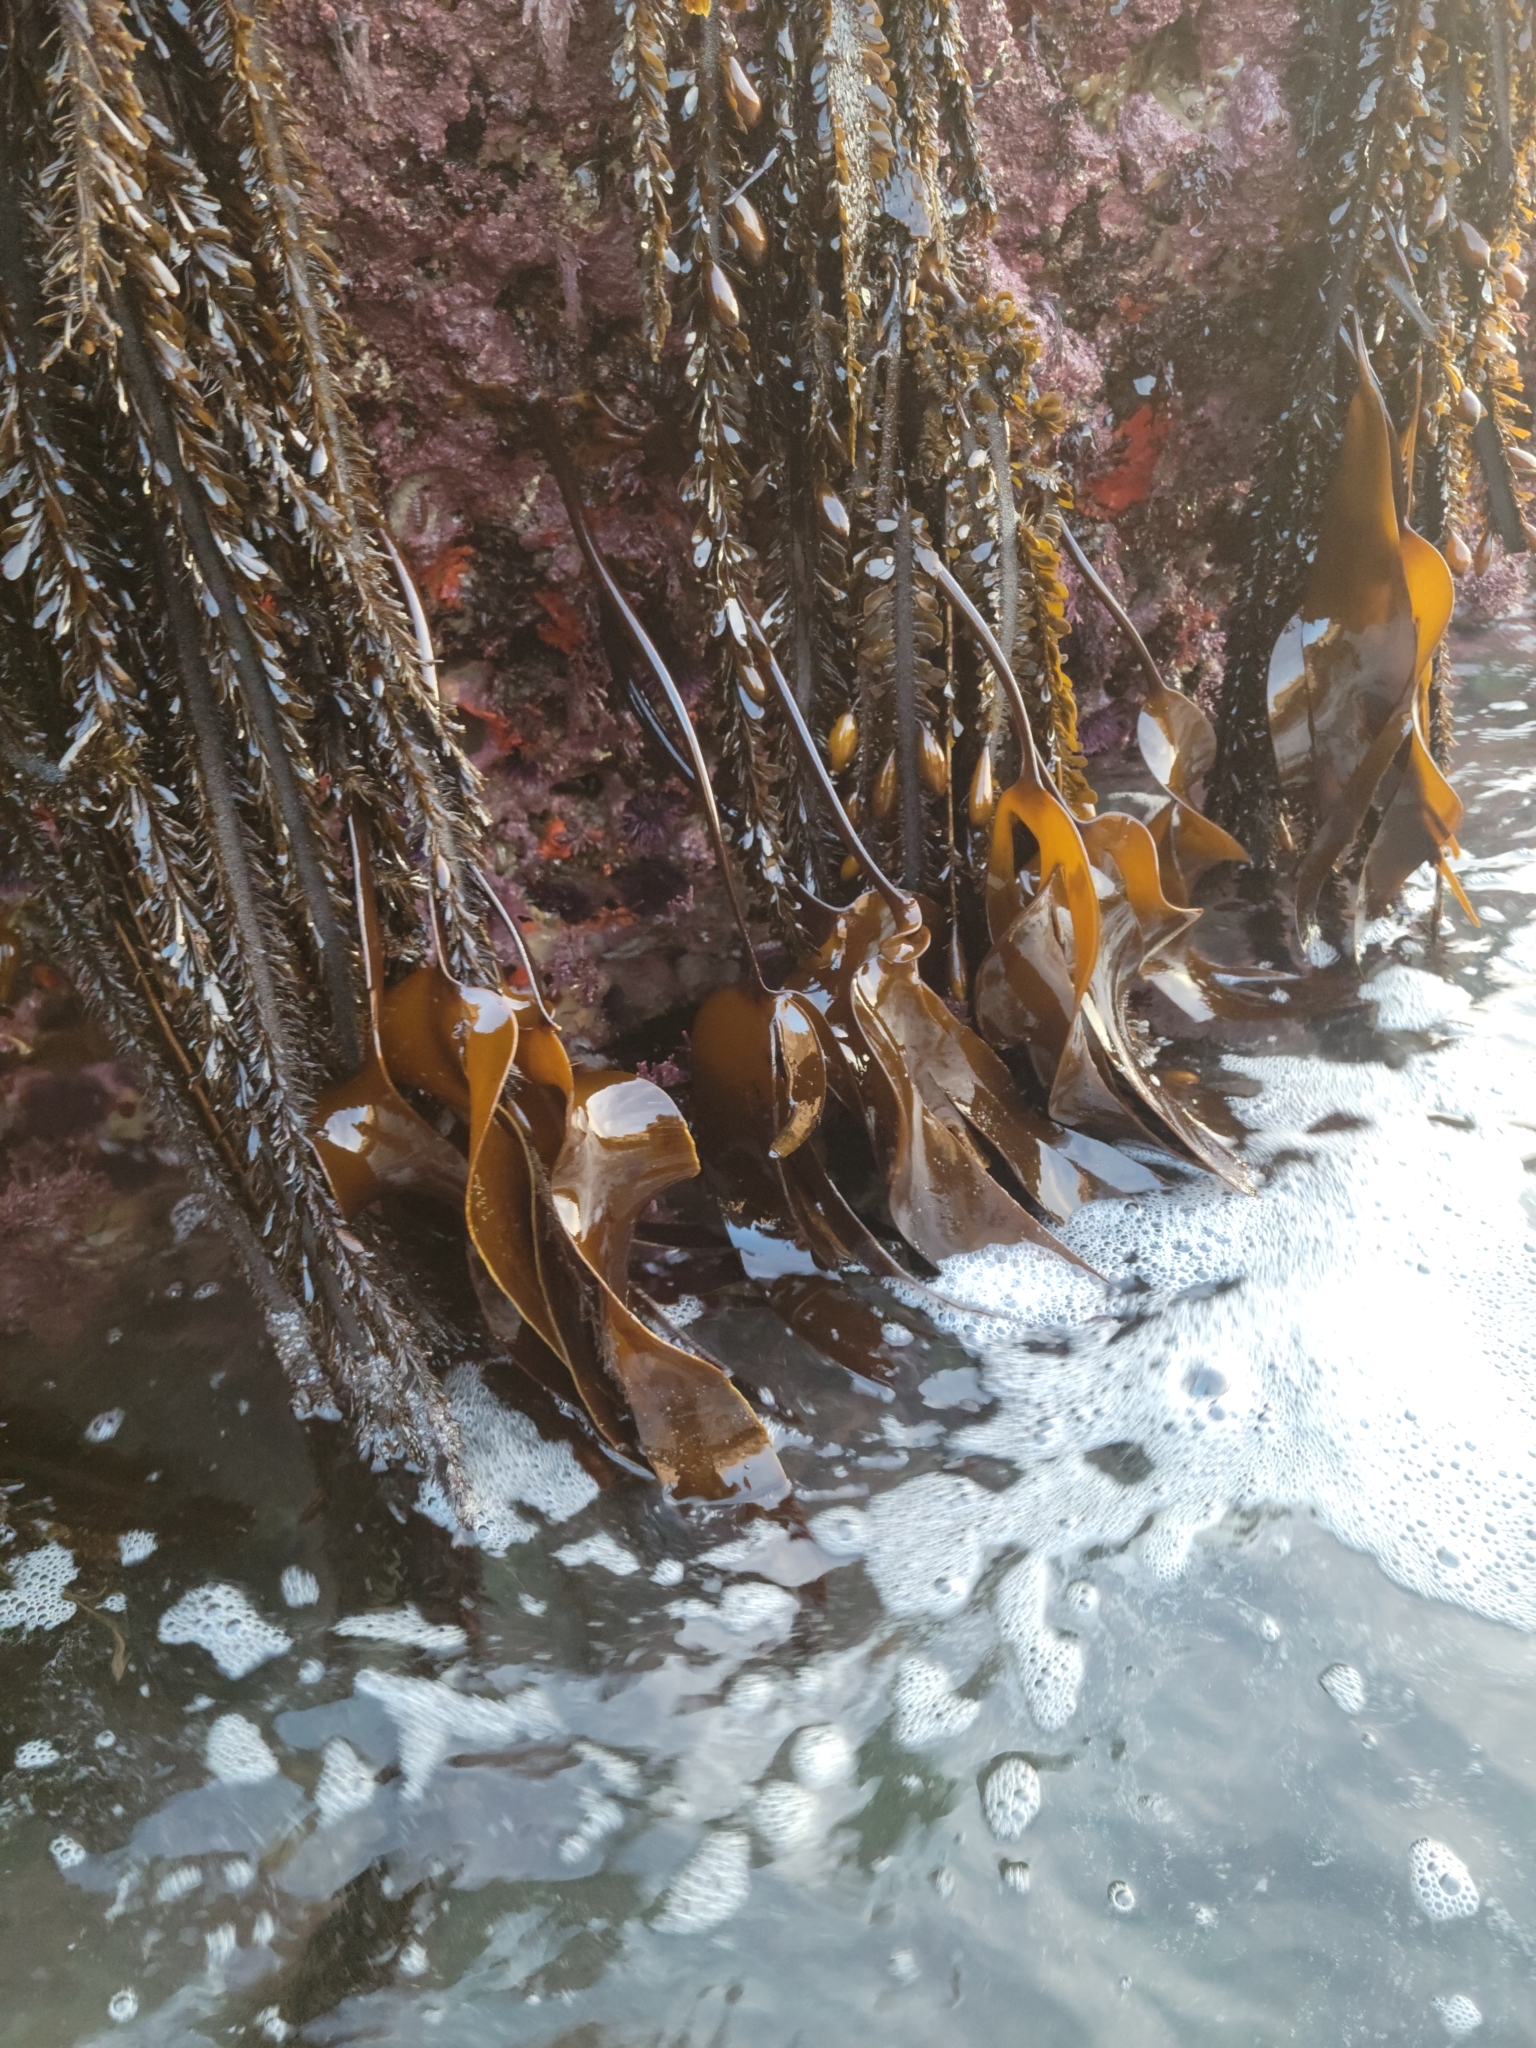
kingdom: Chromista
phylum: Ochrophyta
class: Phaeophyceae
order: Laminariales
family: Laminariaceae
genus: Laminaria
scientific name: Laminaria setchellii
